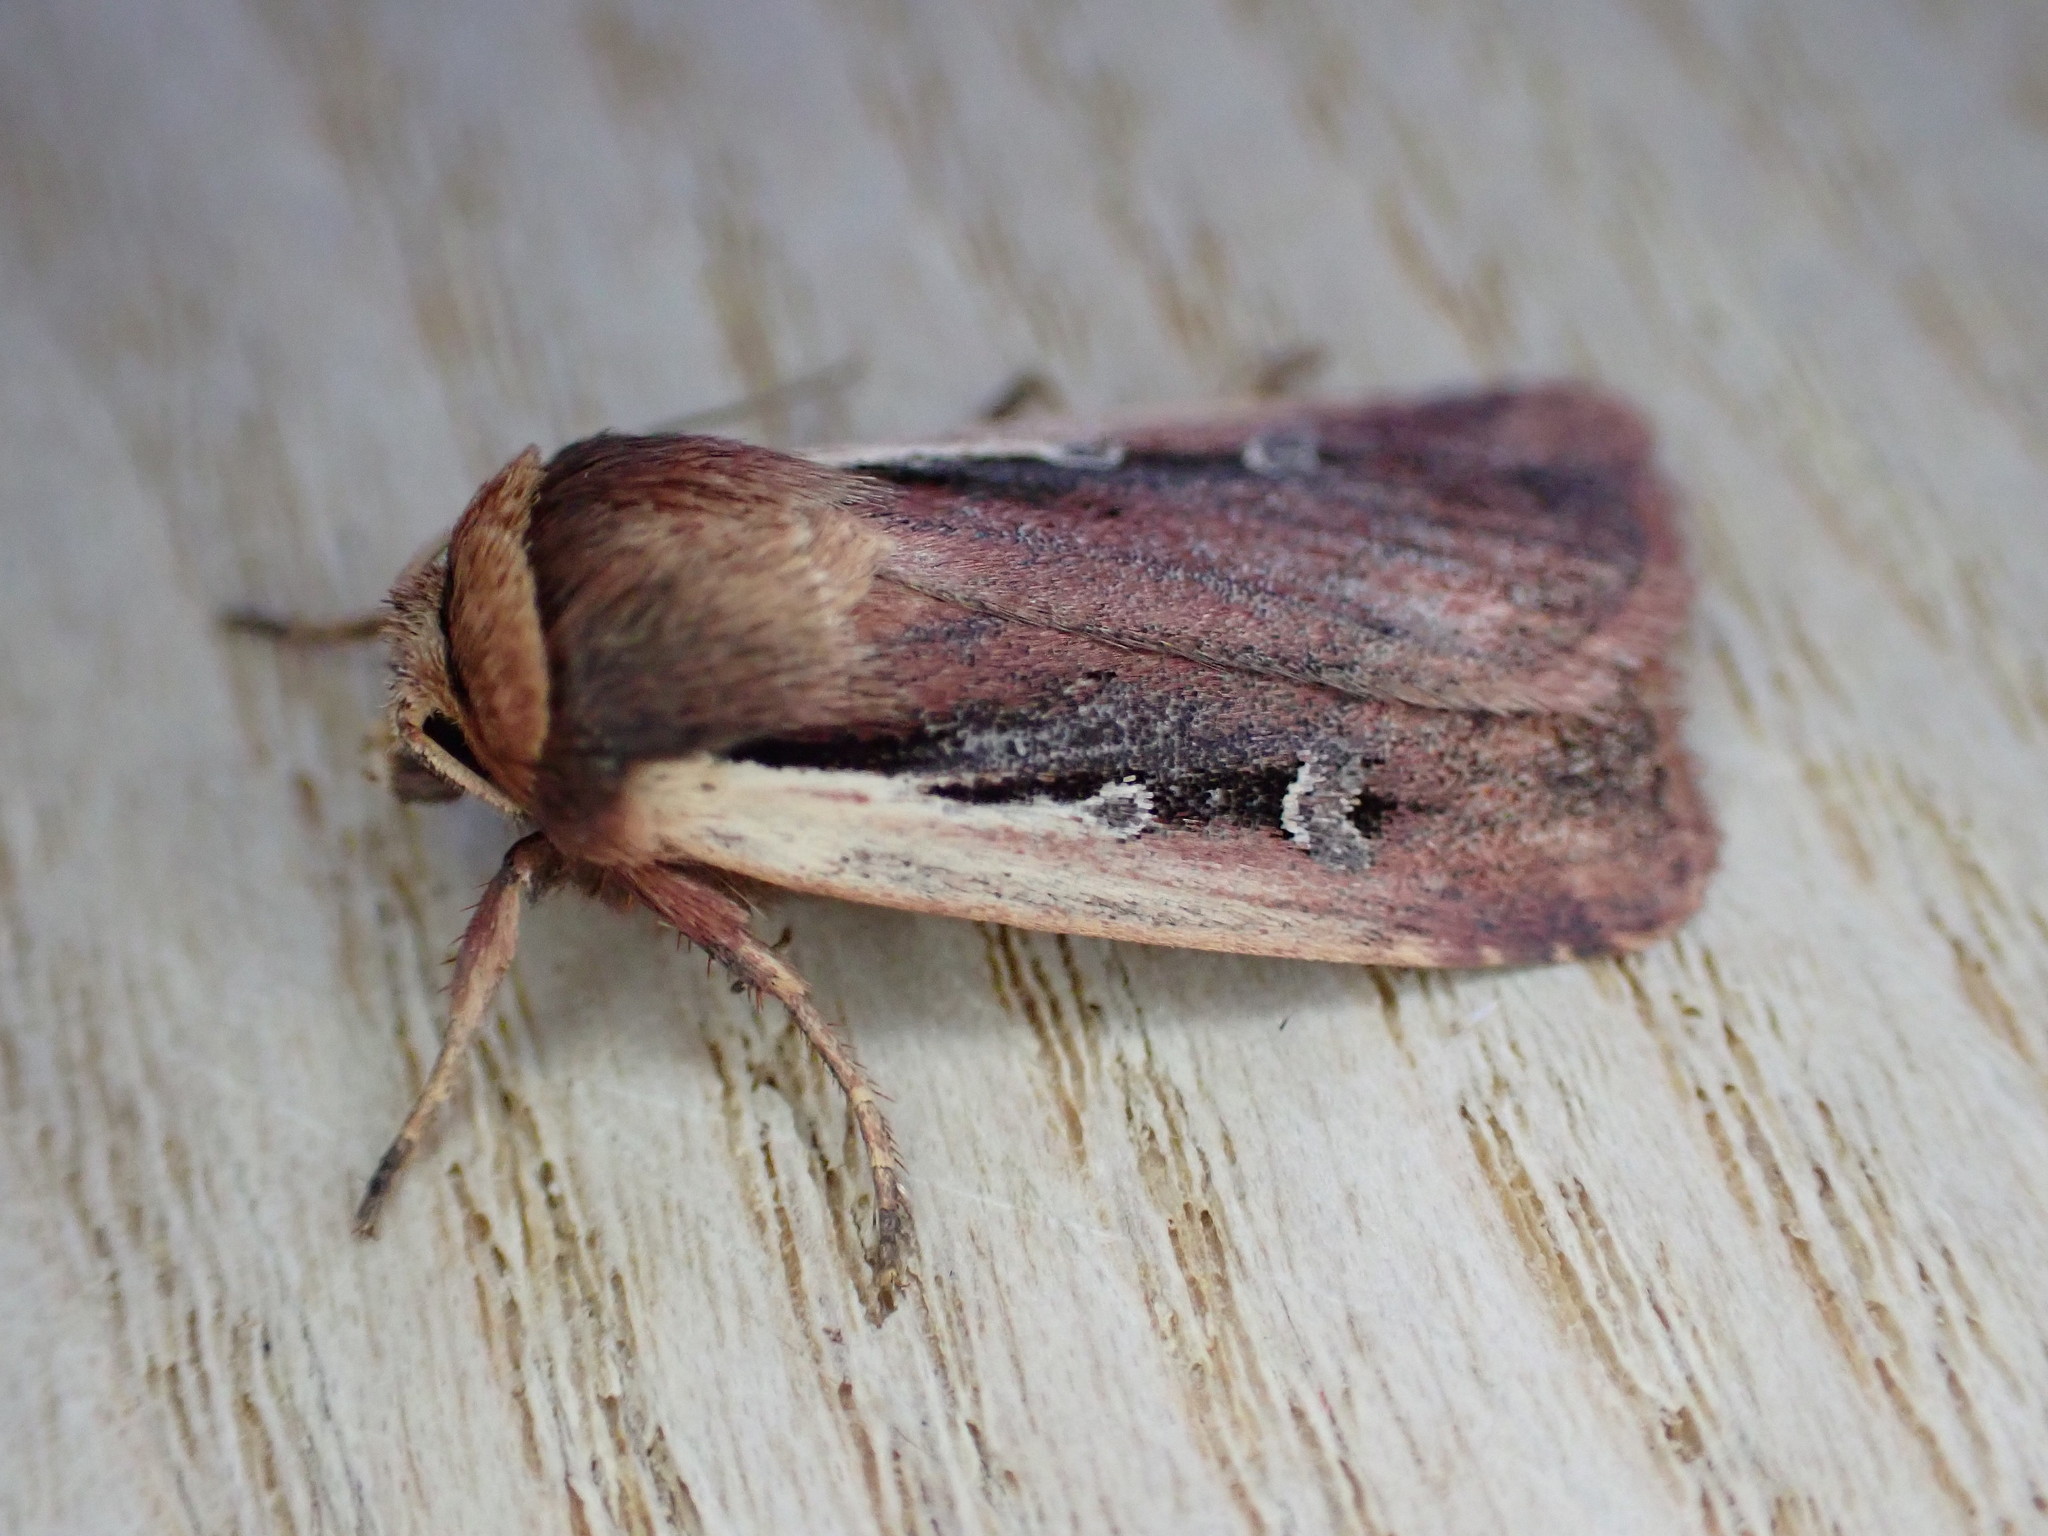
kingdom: Animalia
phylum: Arthropoda
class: Insecta
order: Lepidoptera
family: Noctuidae
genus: Ochropleura
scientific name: Ochropleura plecta
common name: Flame shoulder
